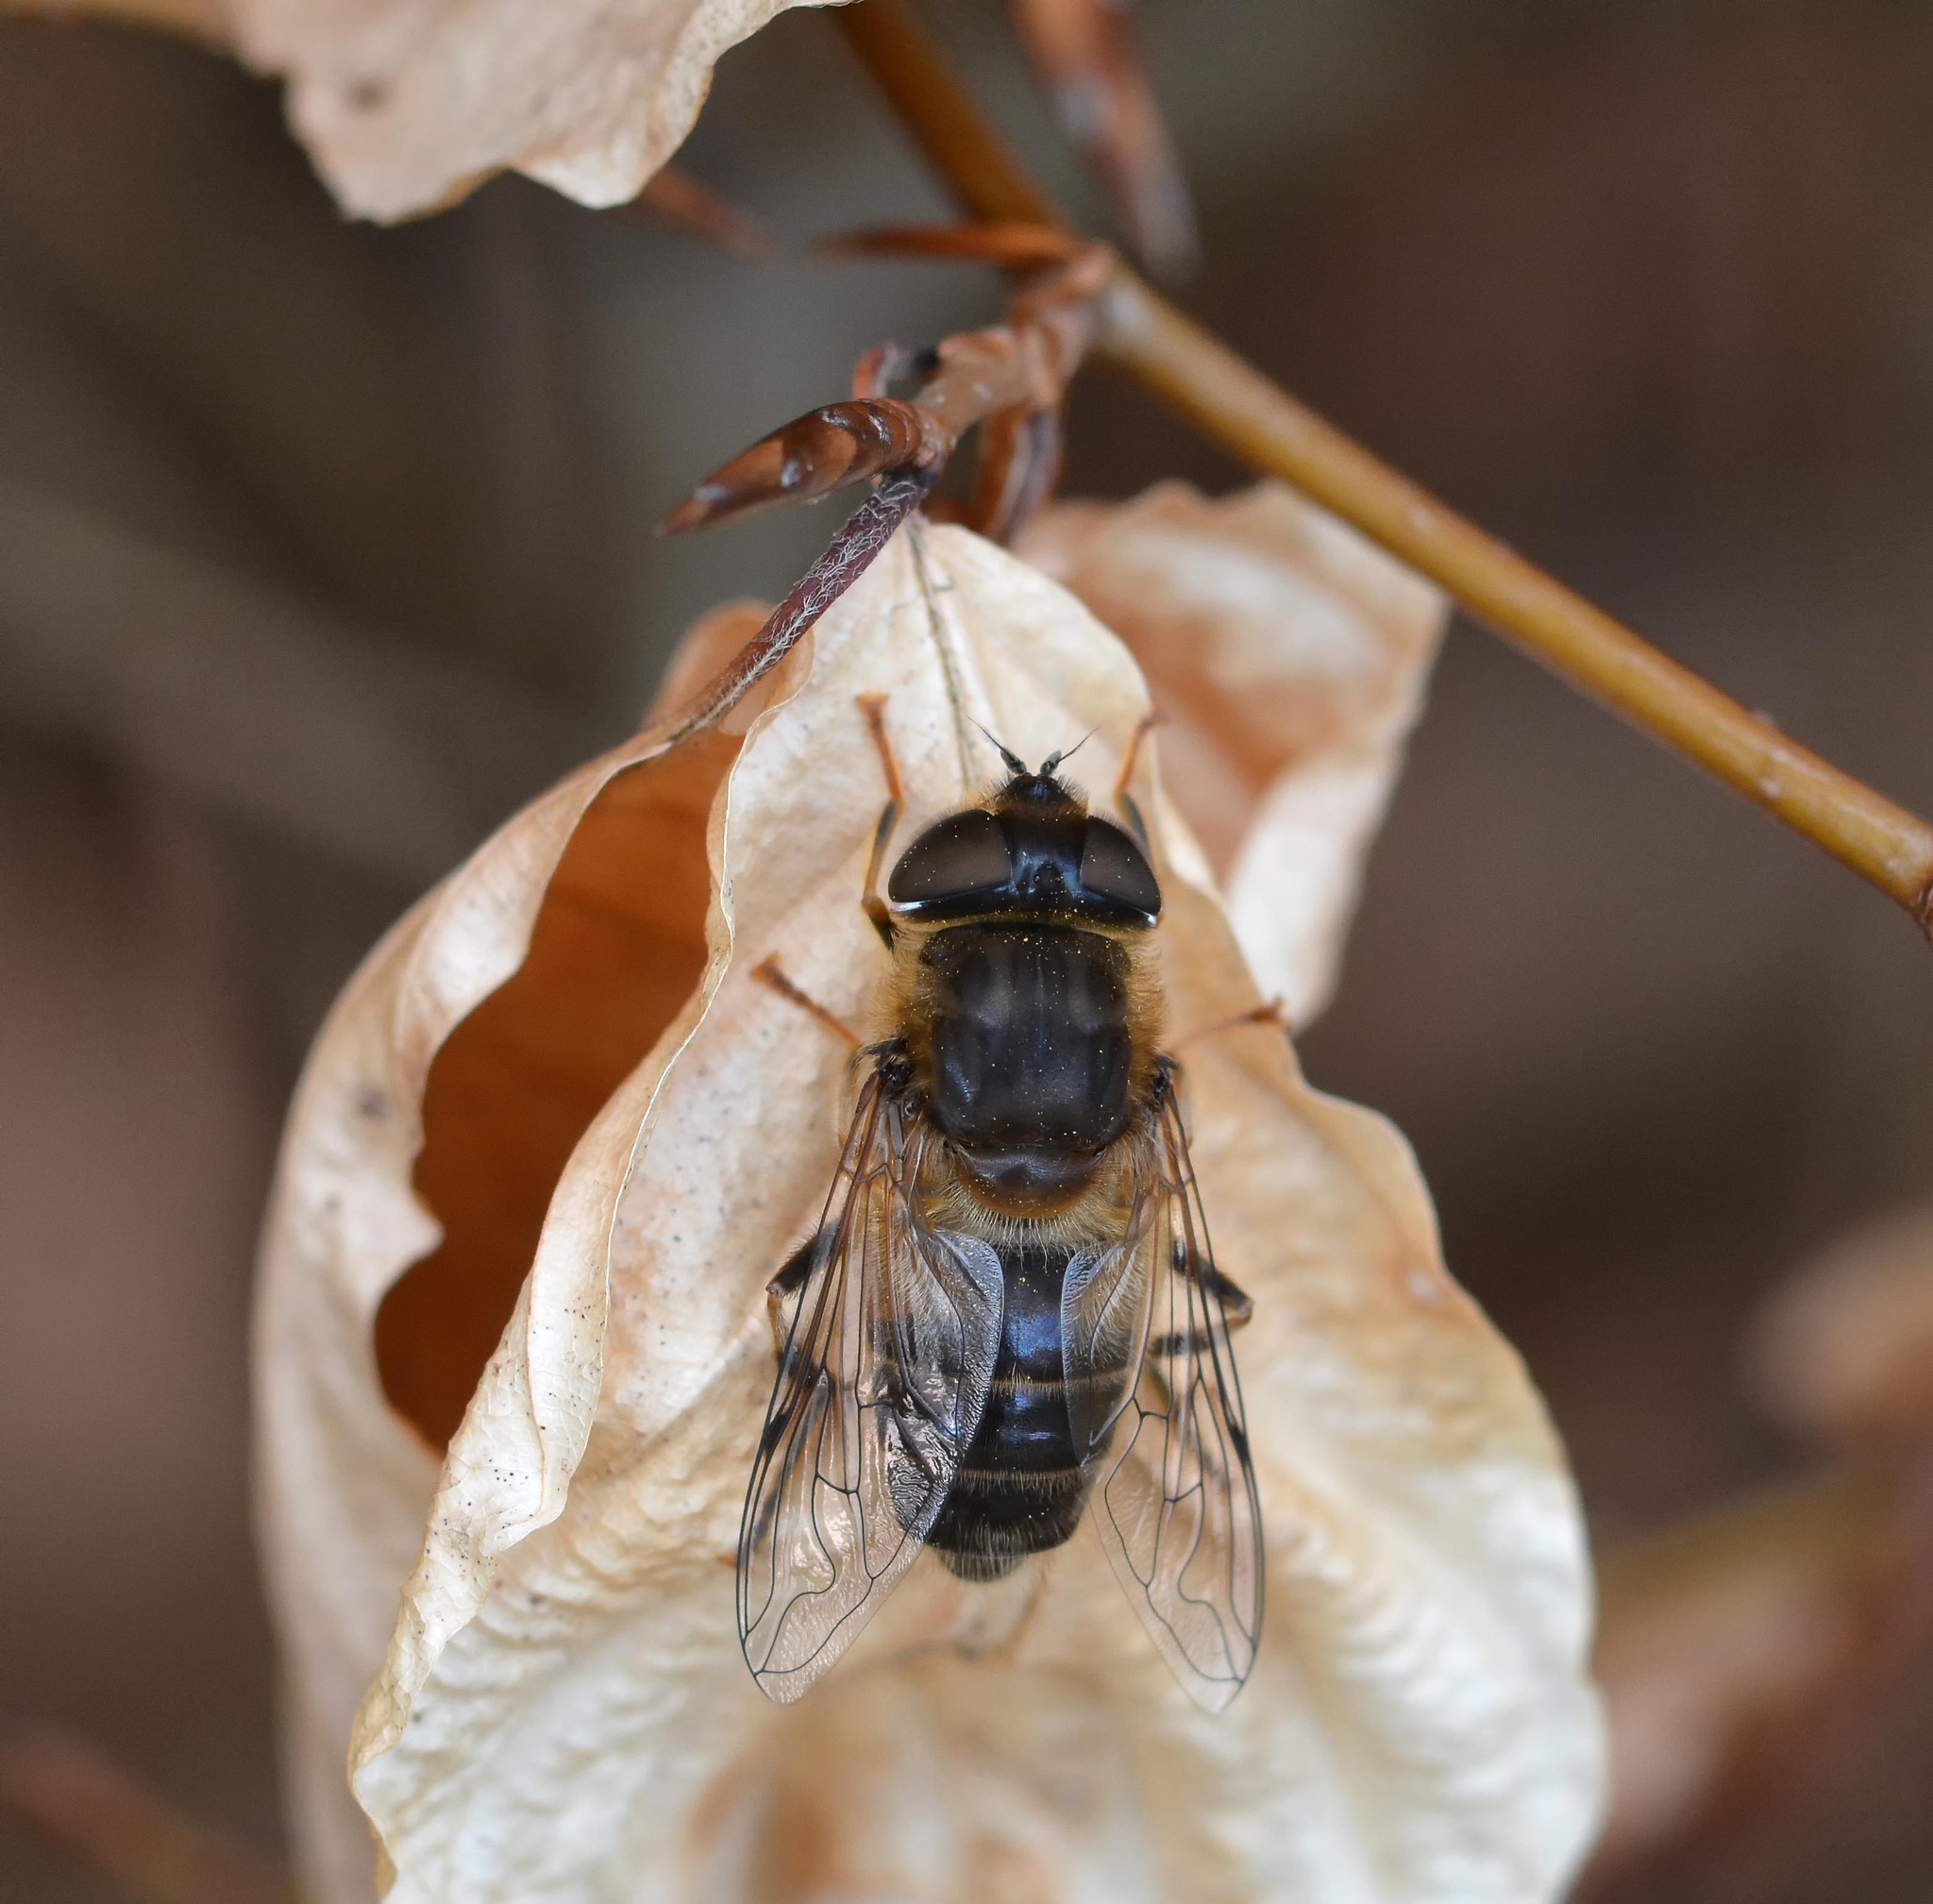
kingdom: Animalia
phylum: Arthropoda
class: Insecta
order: Diptera
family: Syrphidae
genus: Eristalis
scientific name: Eristalis pertinax
